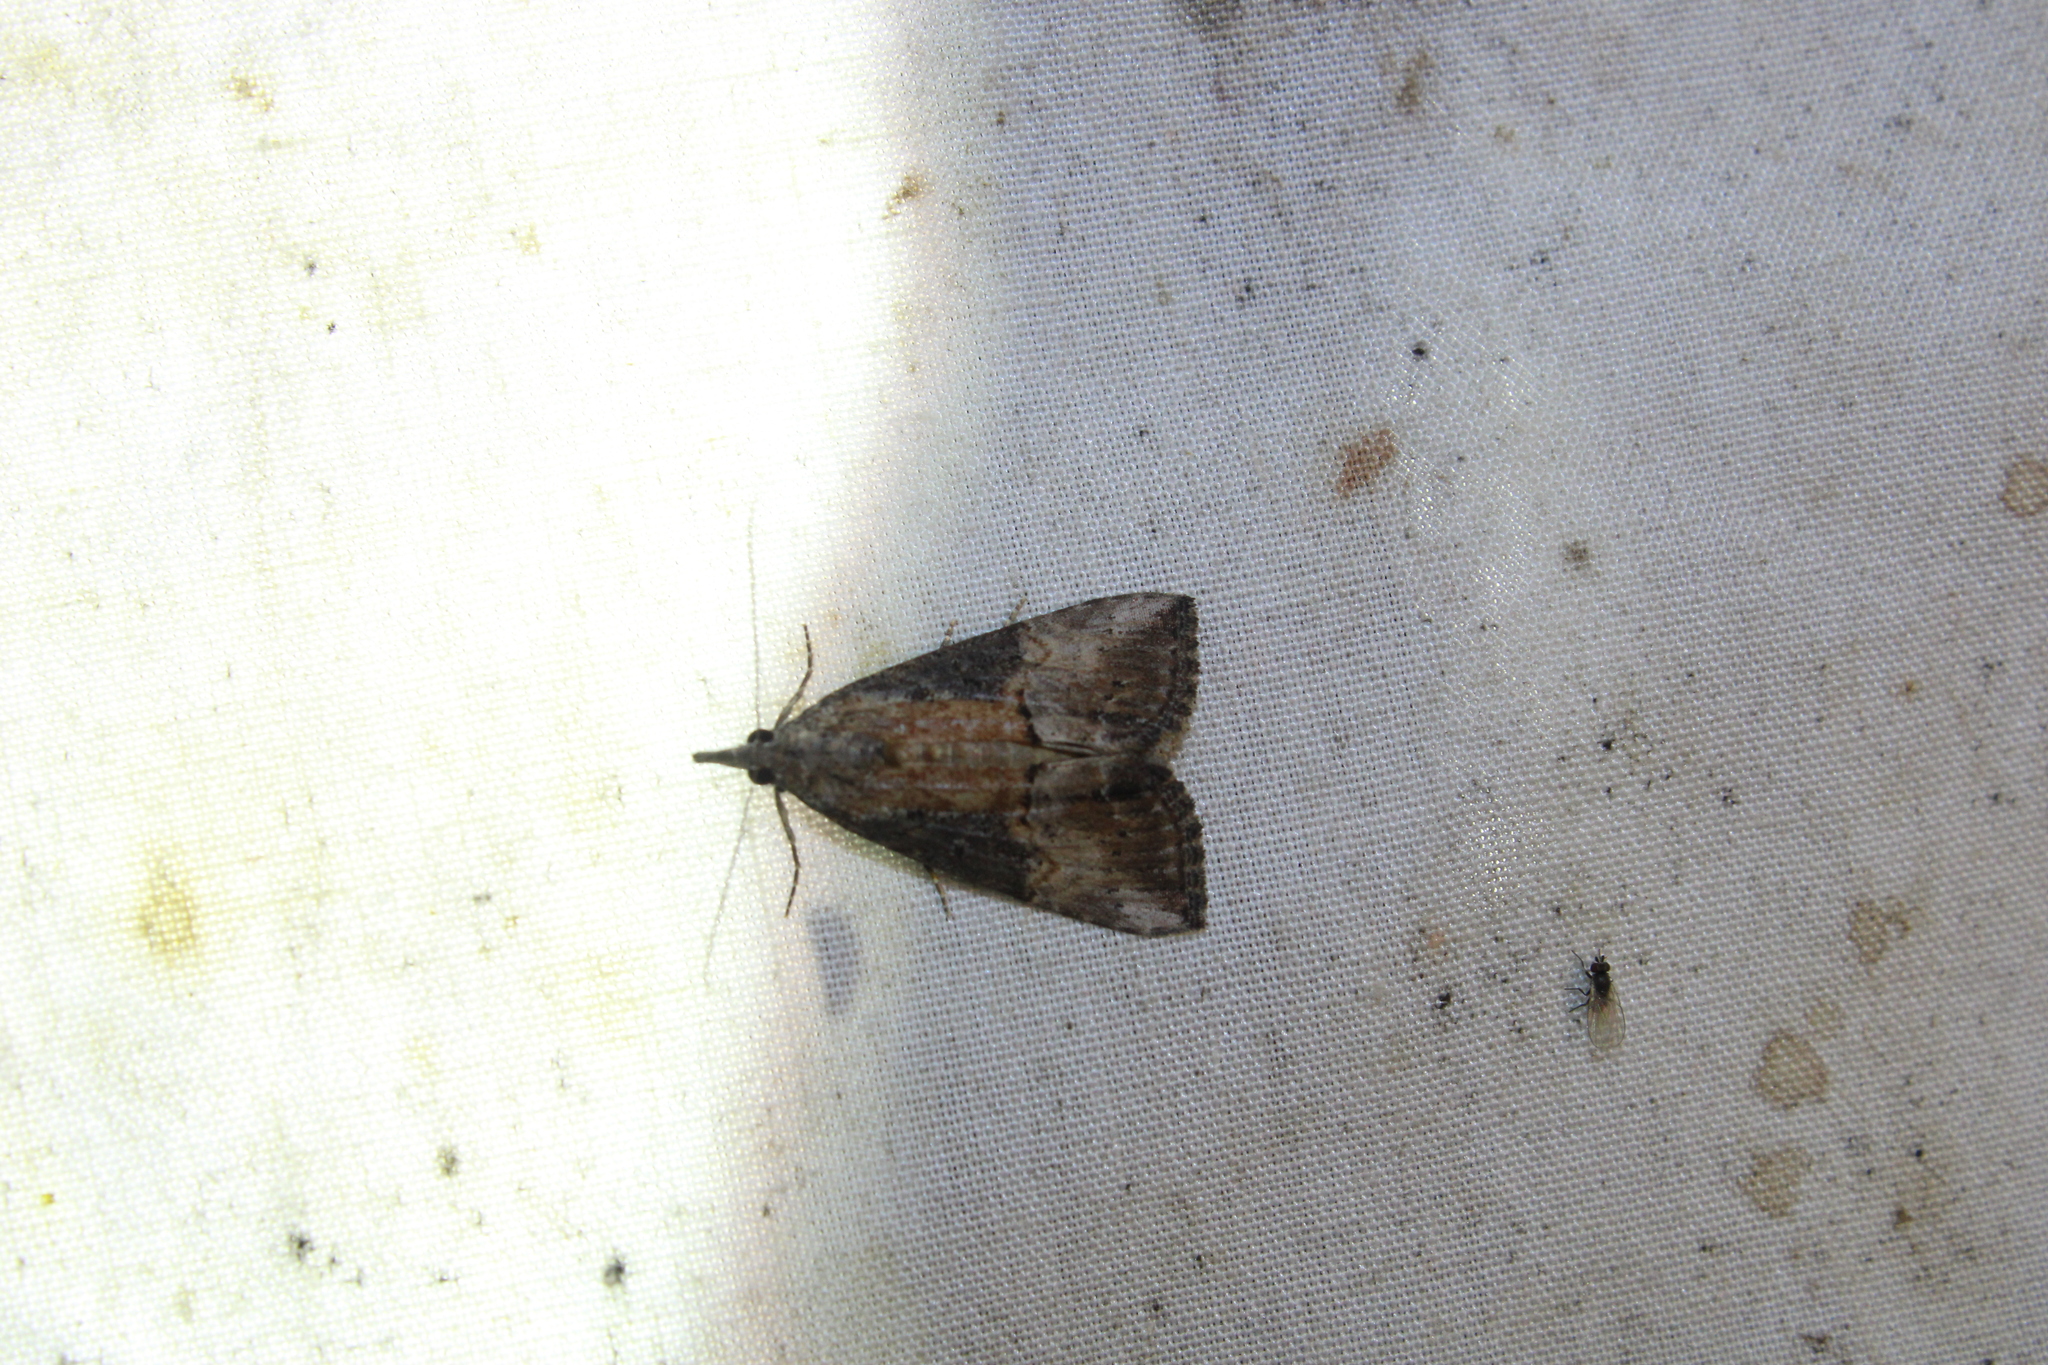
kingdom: Animalia
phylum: Arthropoda
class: Insecta
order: Lepidoptera
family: Erebidae
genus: Hypena
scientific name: Hypena scabra
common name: Green cloverworm
